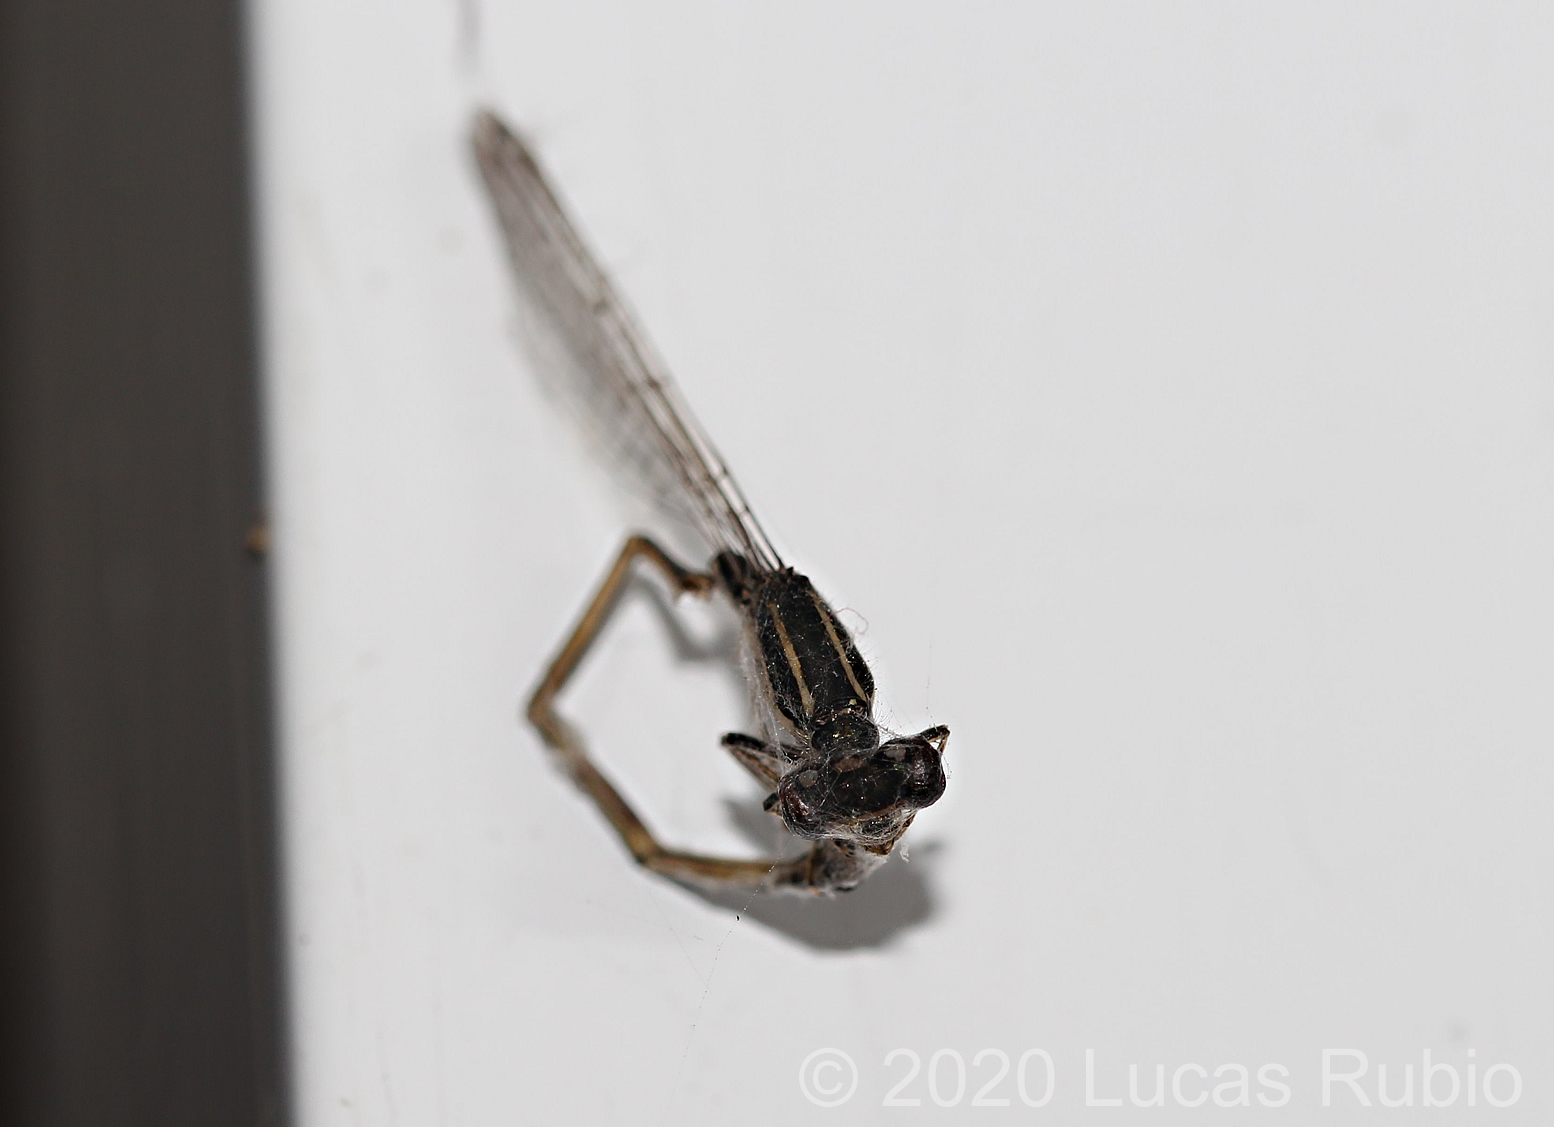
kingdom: Animalia
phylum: Arthropoda
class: Insecta
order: Odonata
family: Coenagrionidae
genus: Ischnura
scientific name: Ischnura fluviatilis
